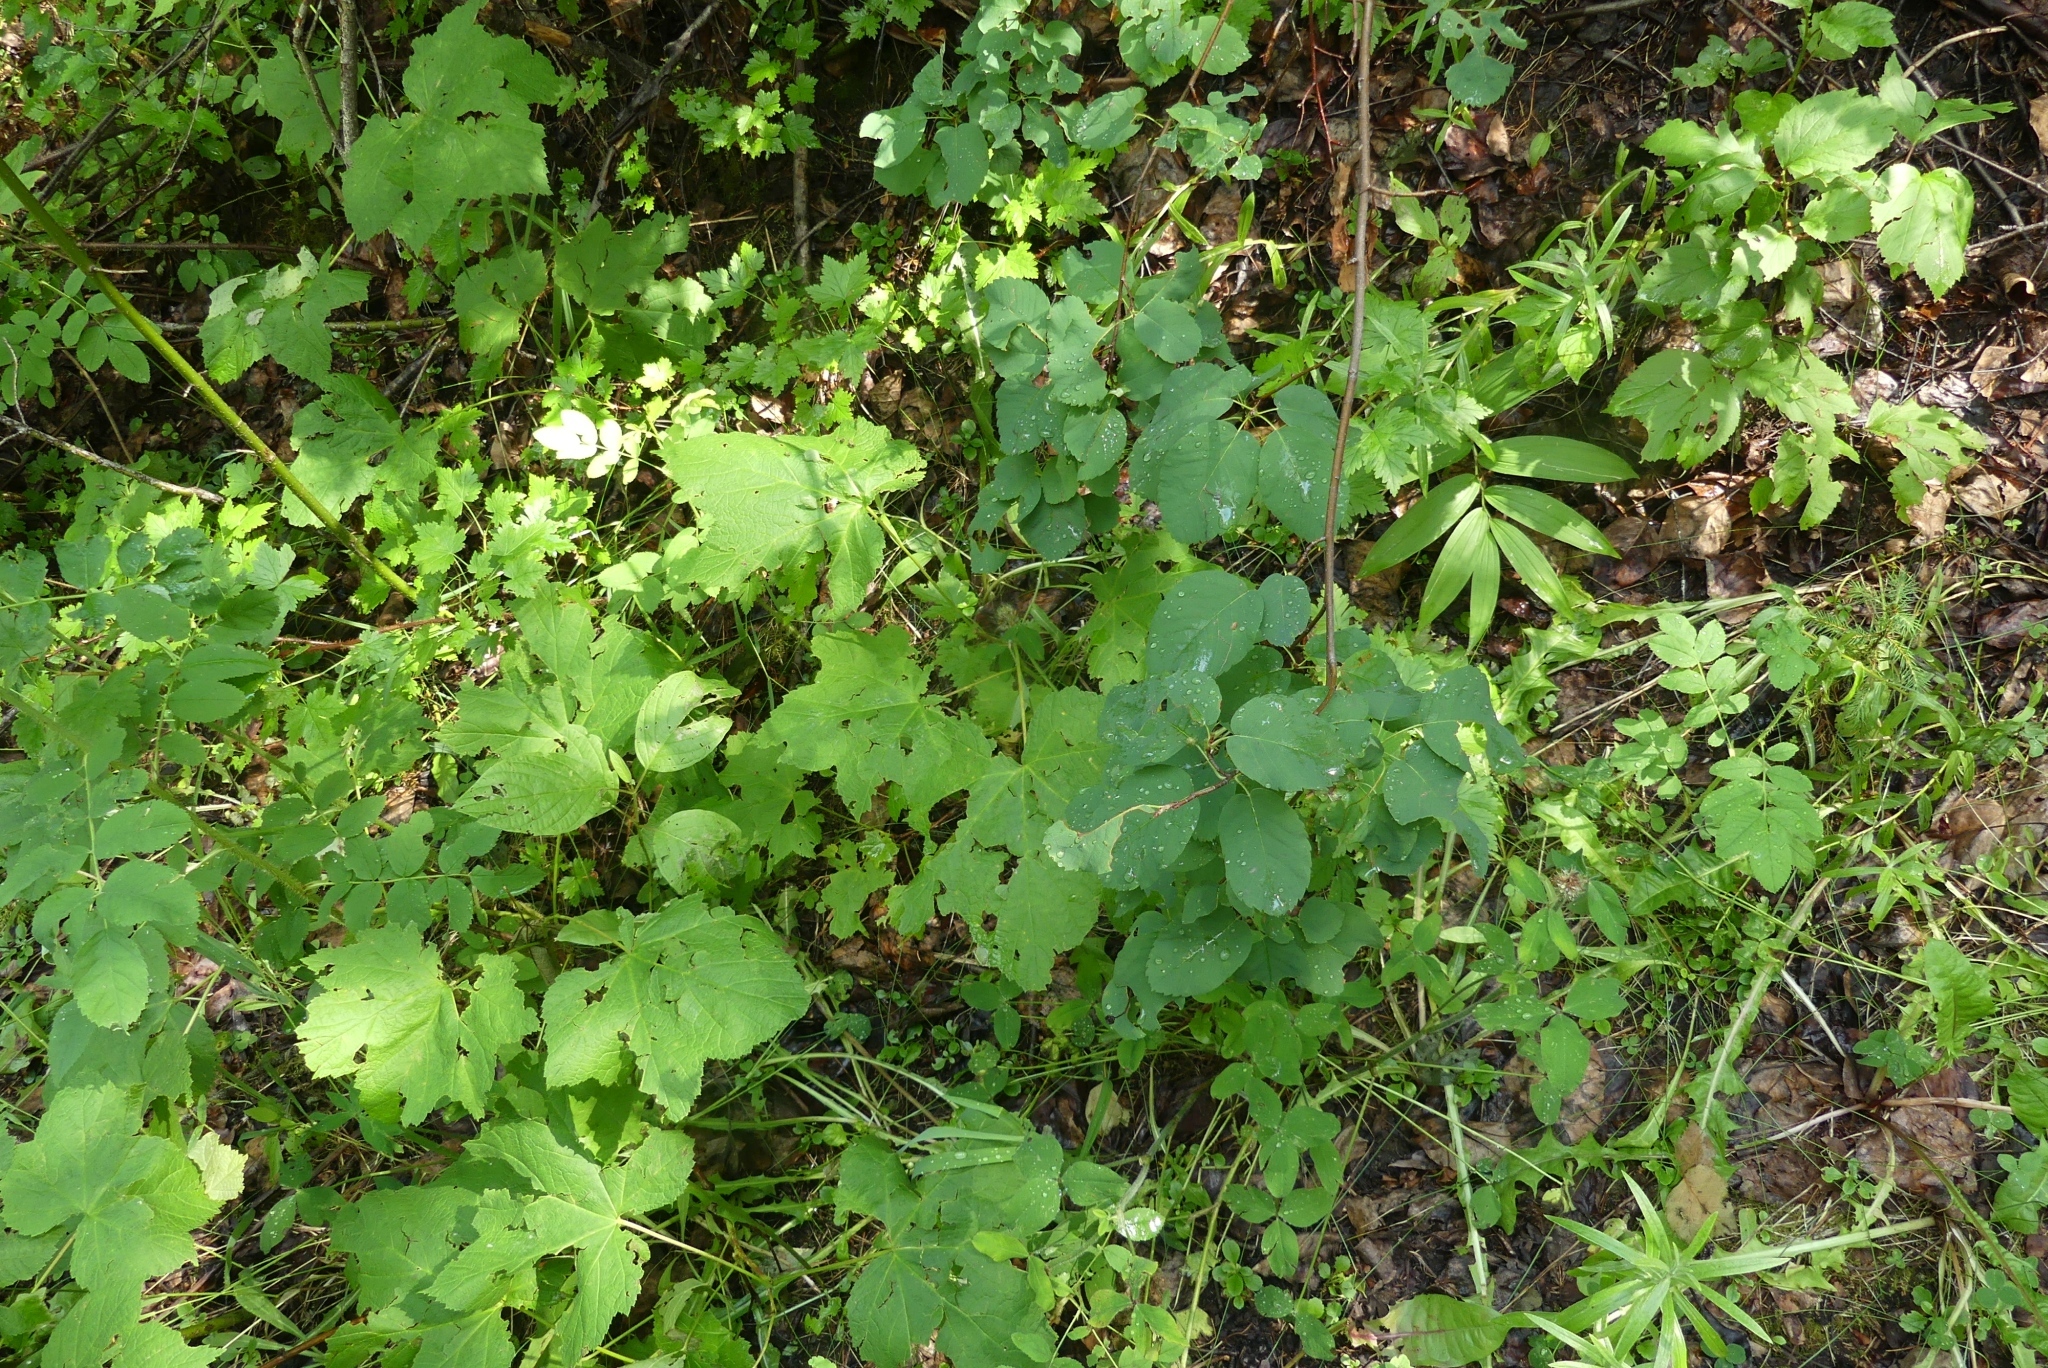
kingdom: Plantae
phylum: Tracheophyta
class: Magnoliopsida
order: Rosales
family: Rosaceae
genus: Amelanchier
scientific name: Amelanchier alnifolia
